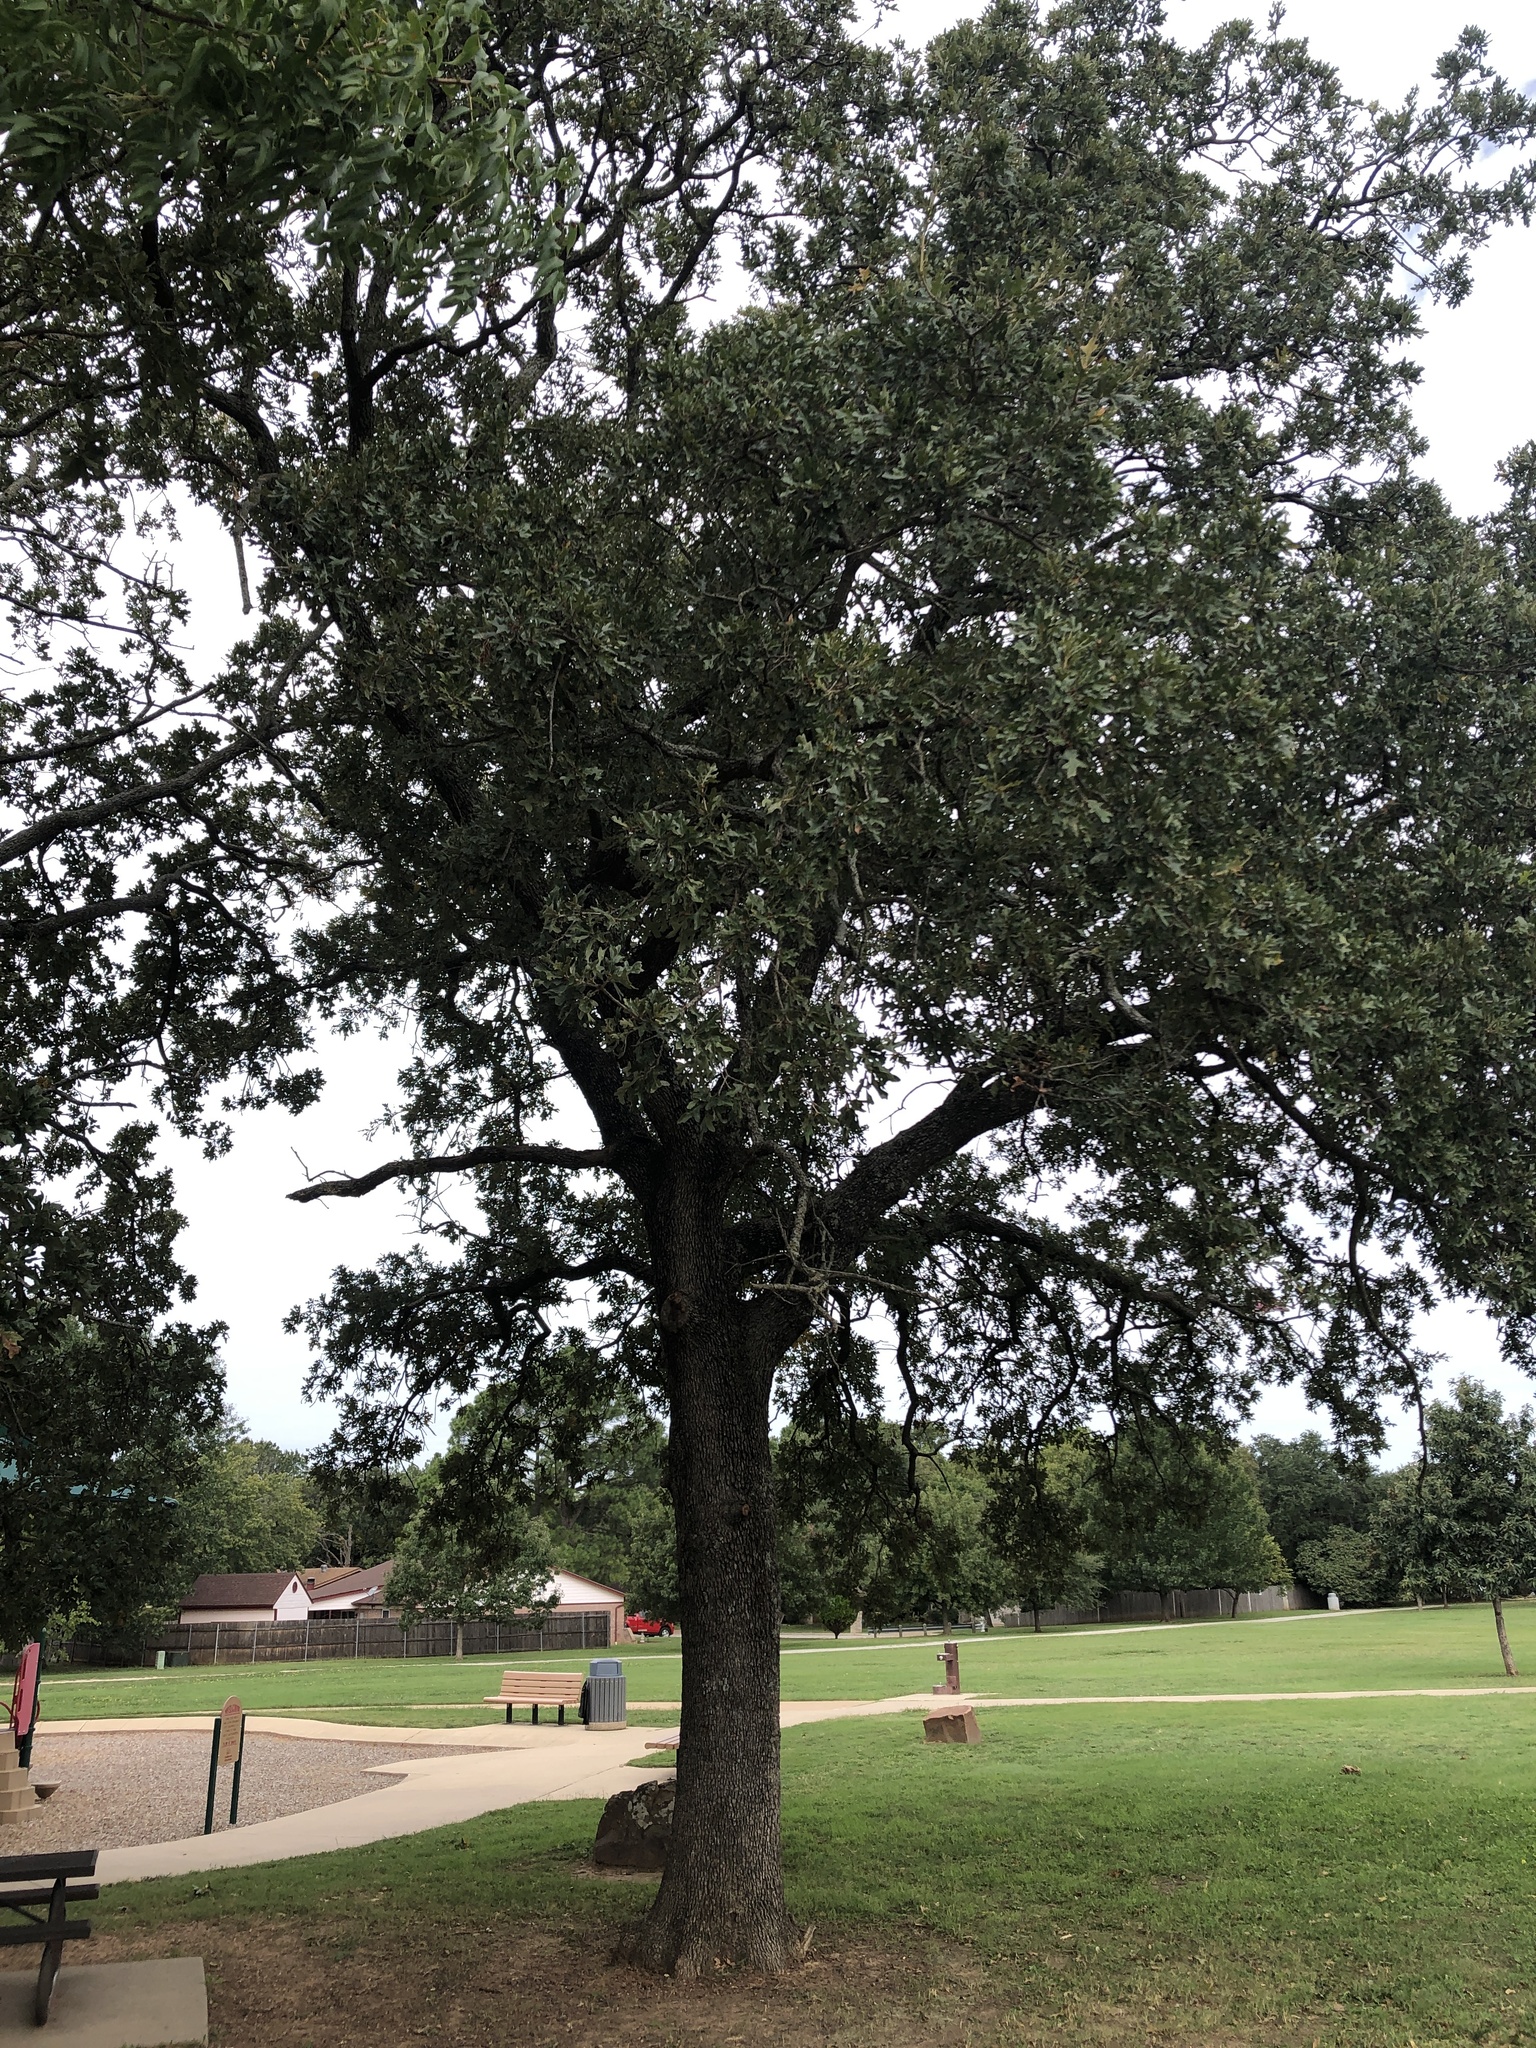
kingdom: Plantae
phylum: Tracheophyta
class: Magnoliopsida
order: Fagales
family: Fagaceae
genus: Quercus
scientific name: Quercus stellata
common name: Post oak
